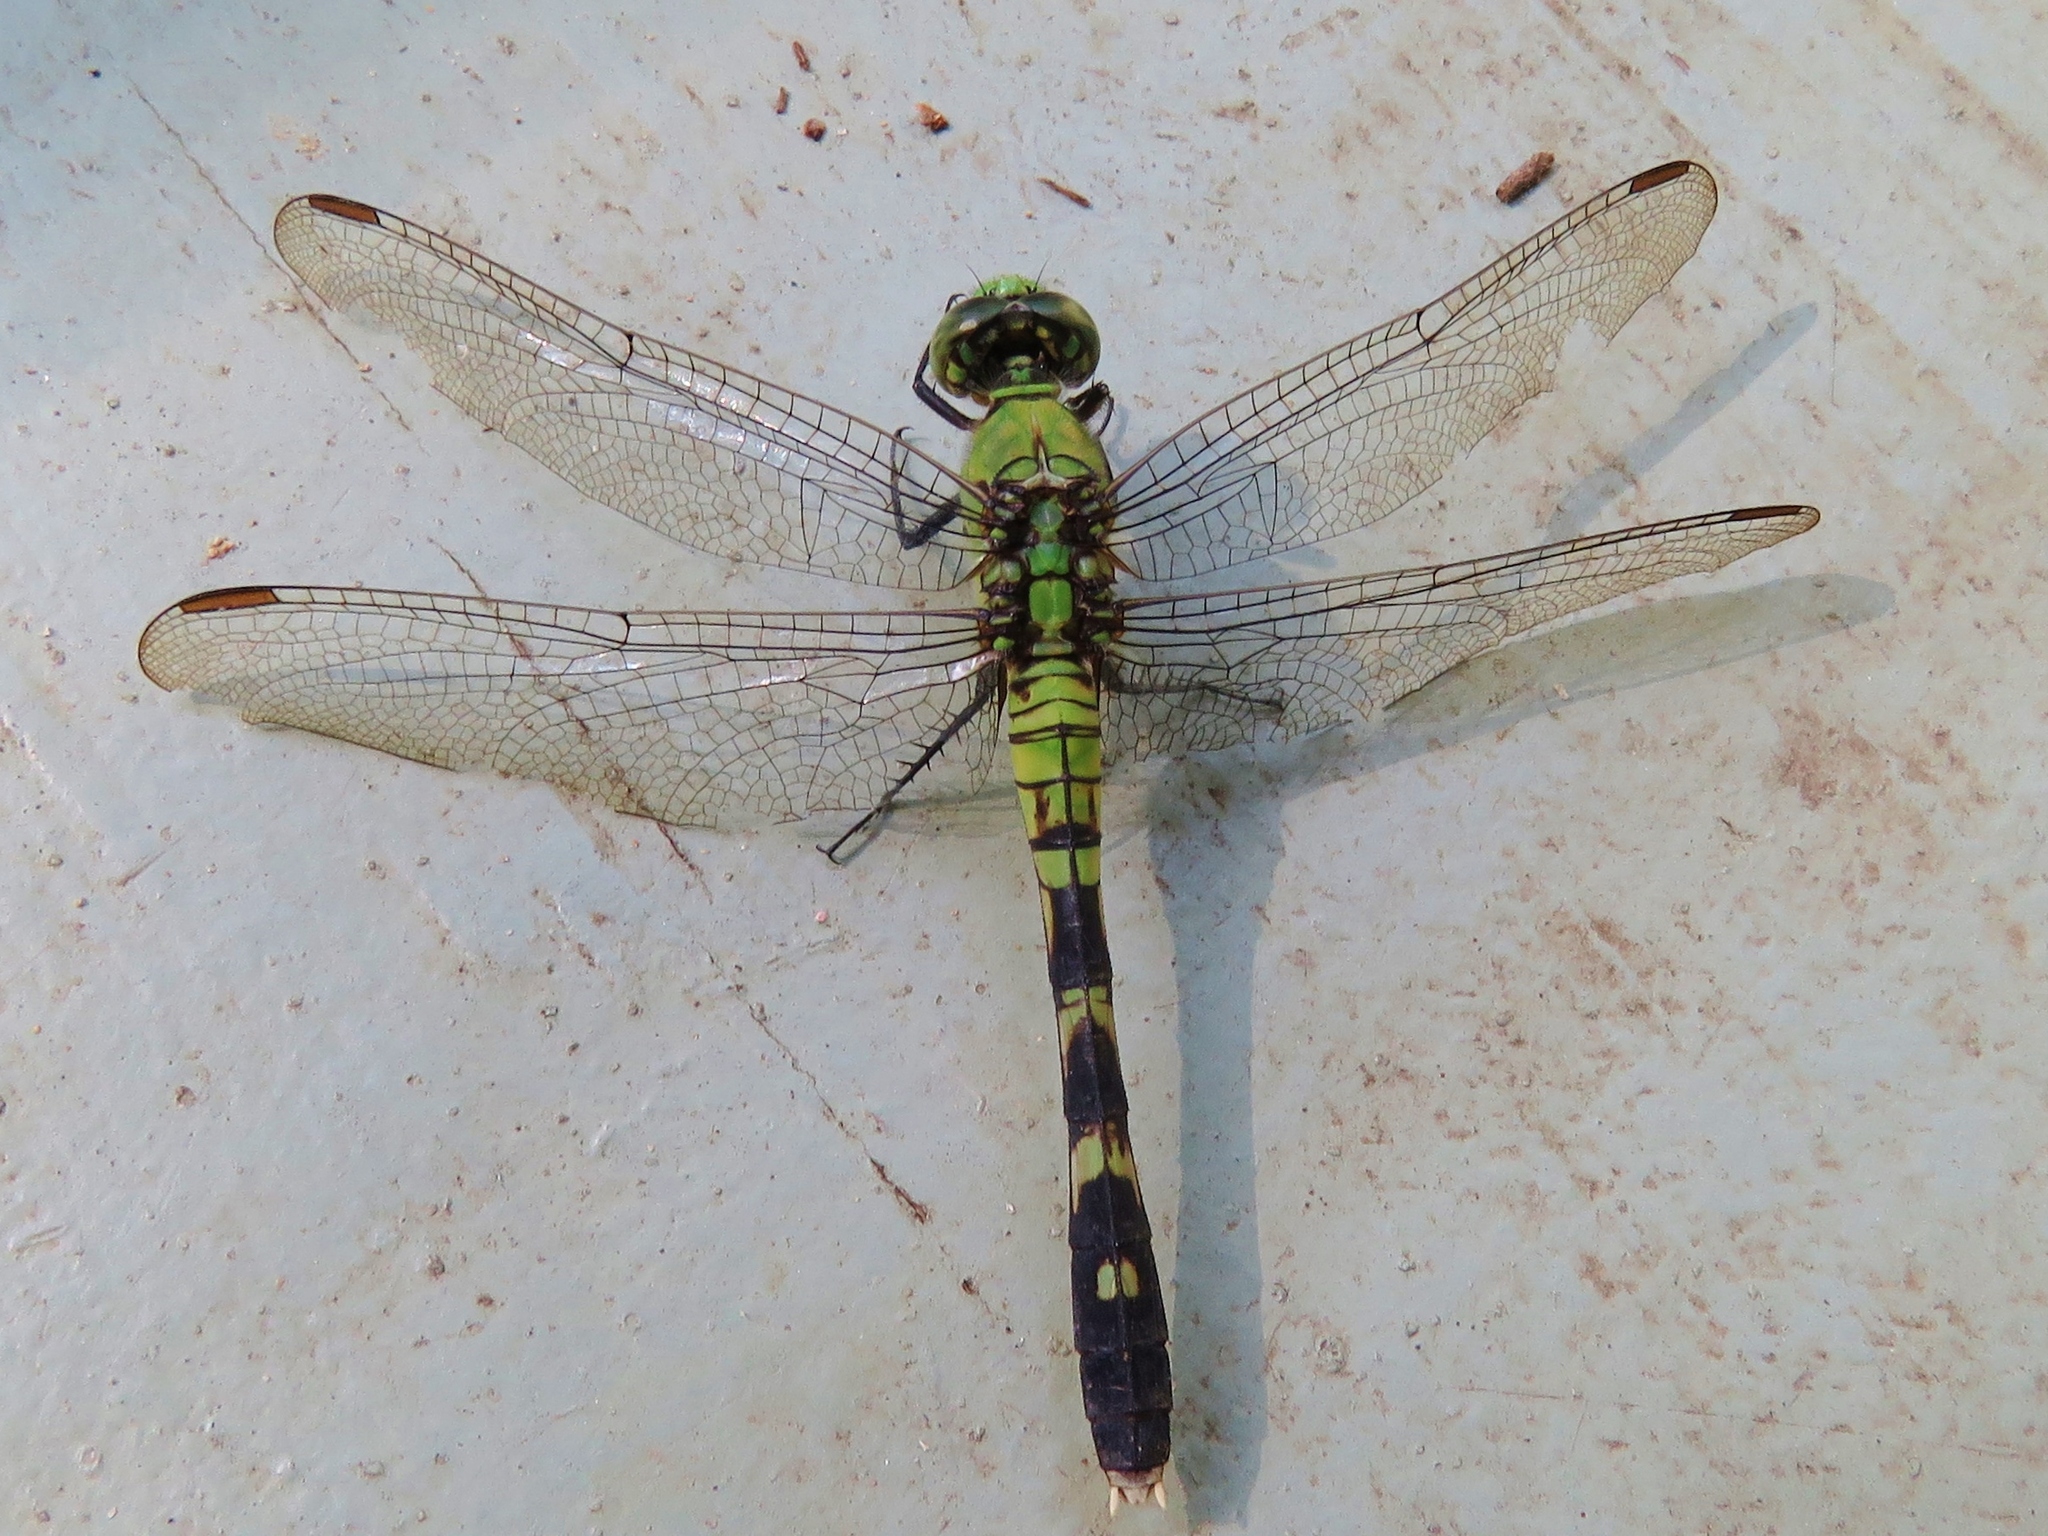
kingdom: Animalia
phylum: Arthropoda
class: Insecta
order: Odonata
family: Libellulidae
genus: Erythemis
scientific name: Erythemis simplicicollis
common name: Eastern pondhawk
